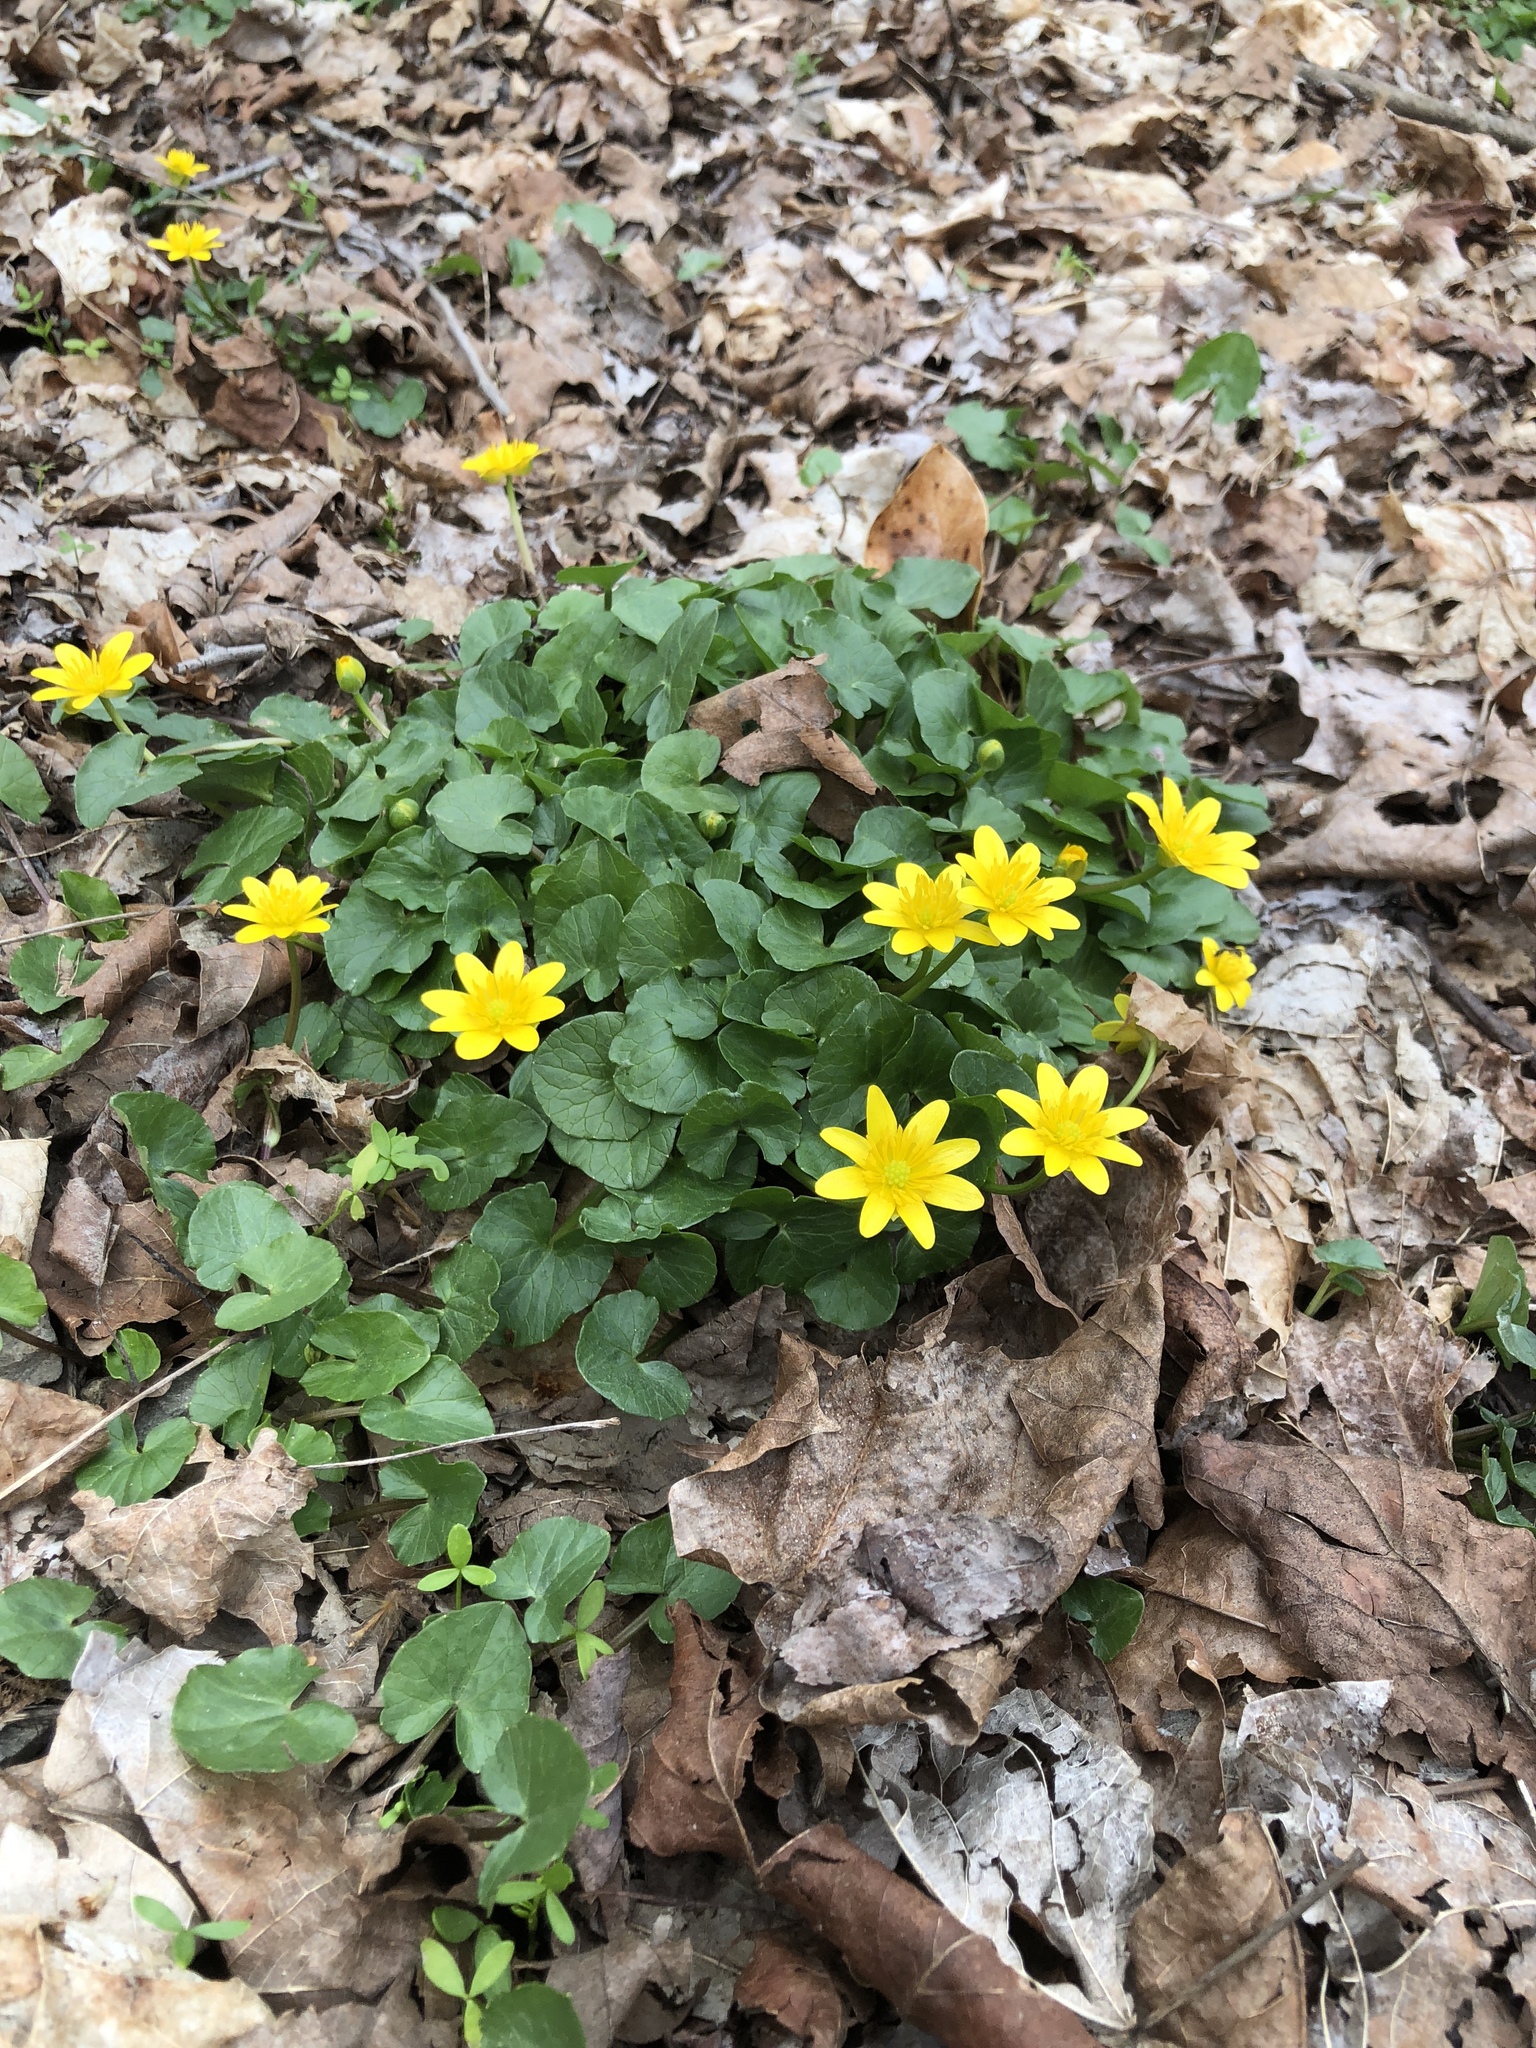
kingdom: Plantae
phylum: Tracheophyta
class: Magnoliopsida
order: Ranunculales
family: Ranunculaceae
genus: Ficaria
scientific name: Ficaria verna
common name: Lesser celandine
